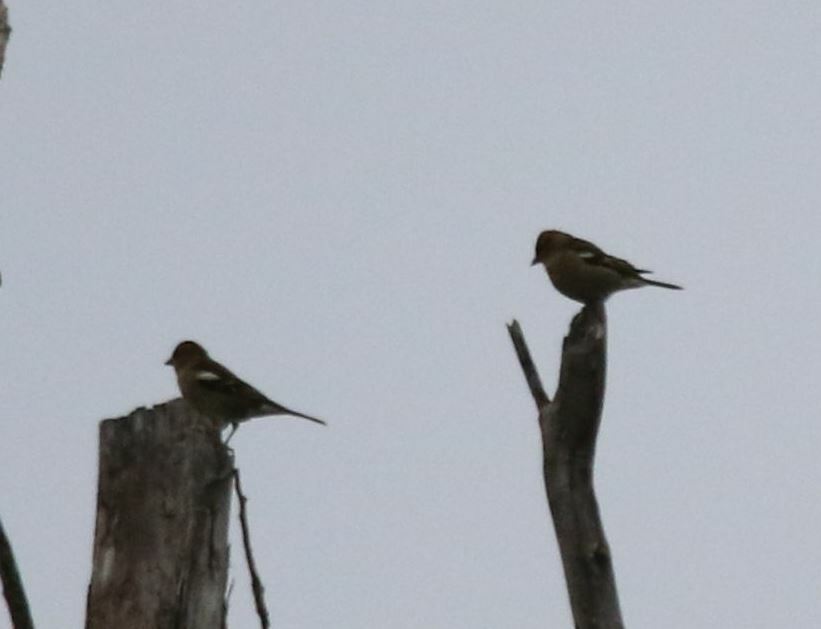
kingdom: Animalia
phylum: Chordata
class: Aves
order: Passeriformes
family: Fringillidae
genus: Fringilla
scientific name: Fringilla coelebs
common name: Common chaffinch
